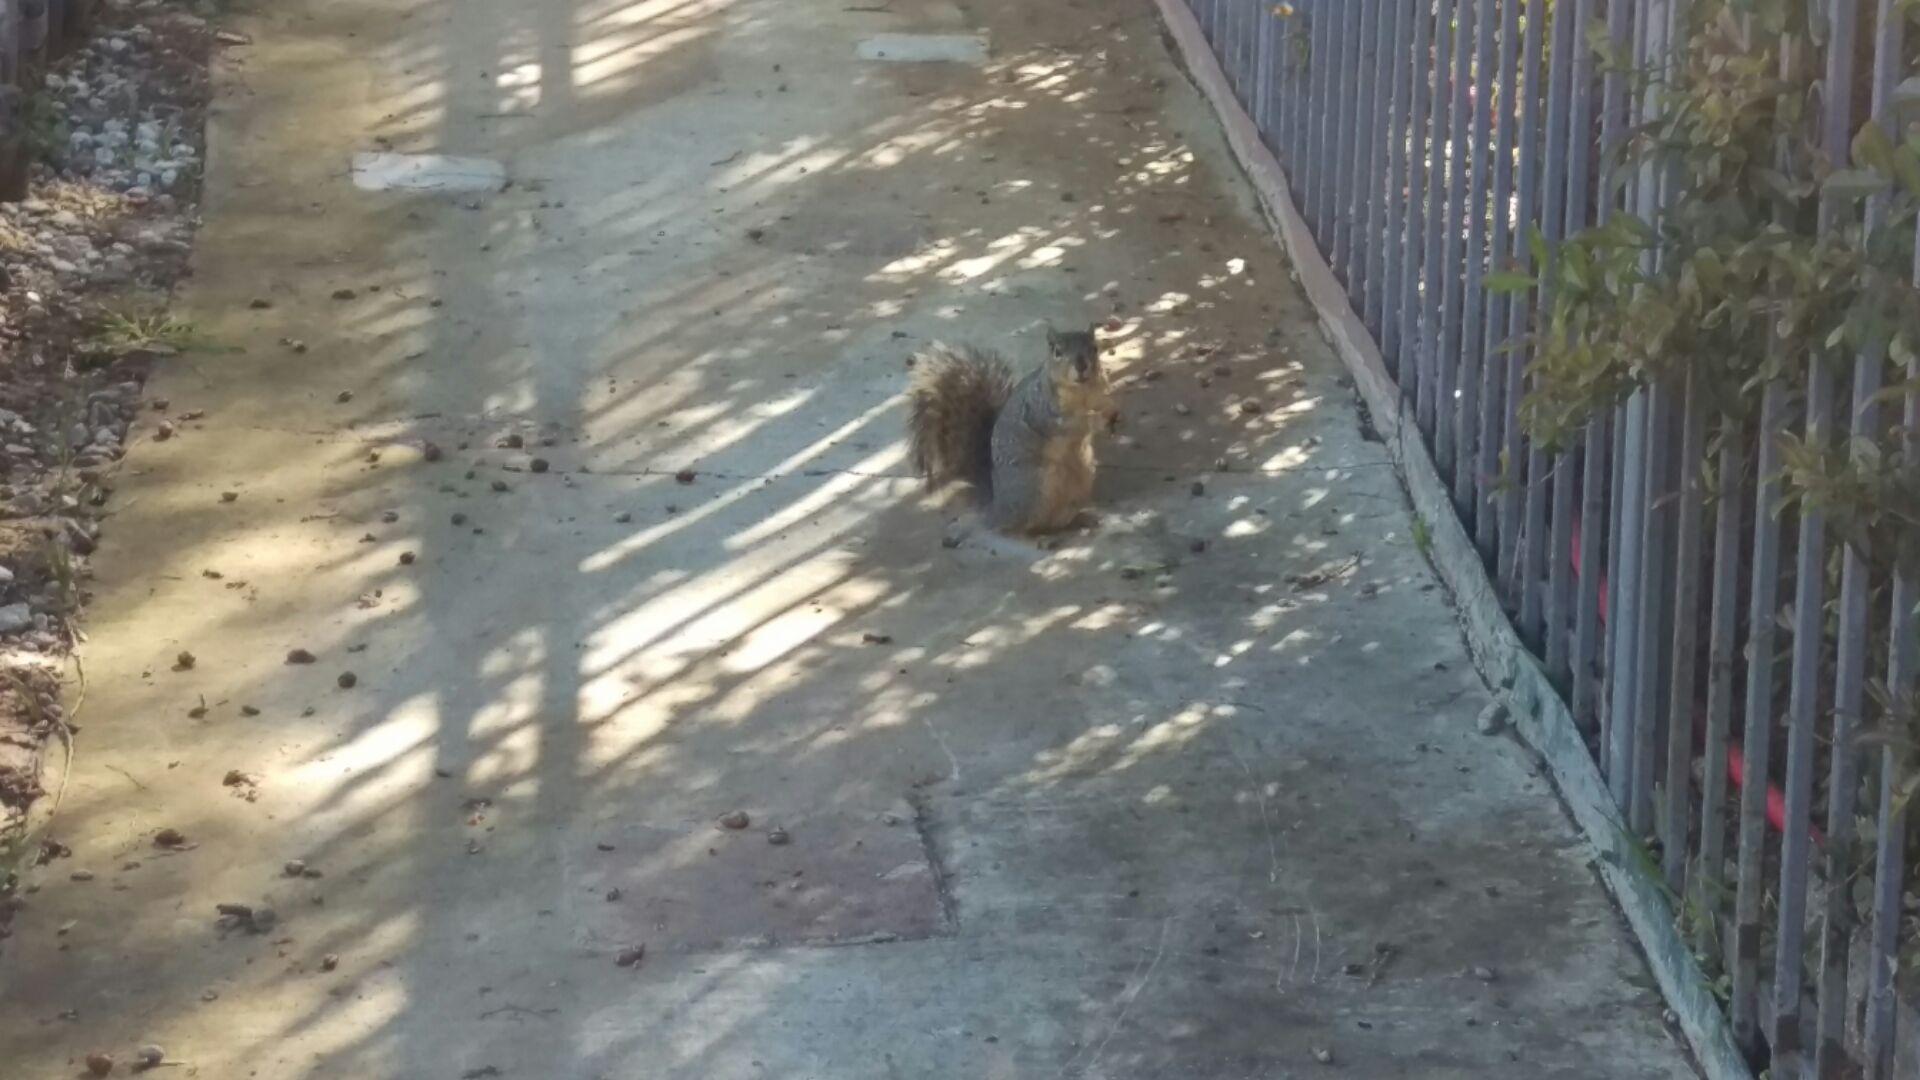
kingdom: Animalia
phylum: Chordata
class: Mammalia
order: Rodentia
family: Sciuridae
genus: Sciurus
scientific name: Sciurus niger
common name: Fox squirrel
